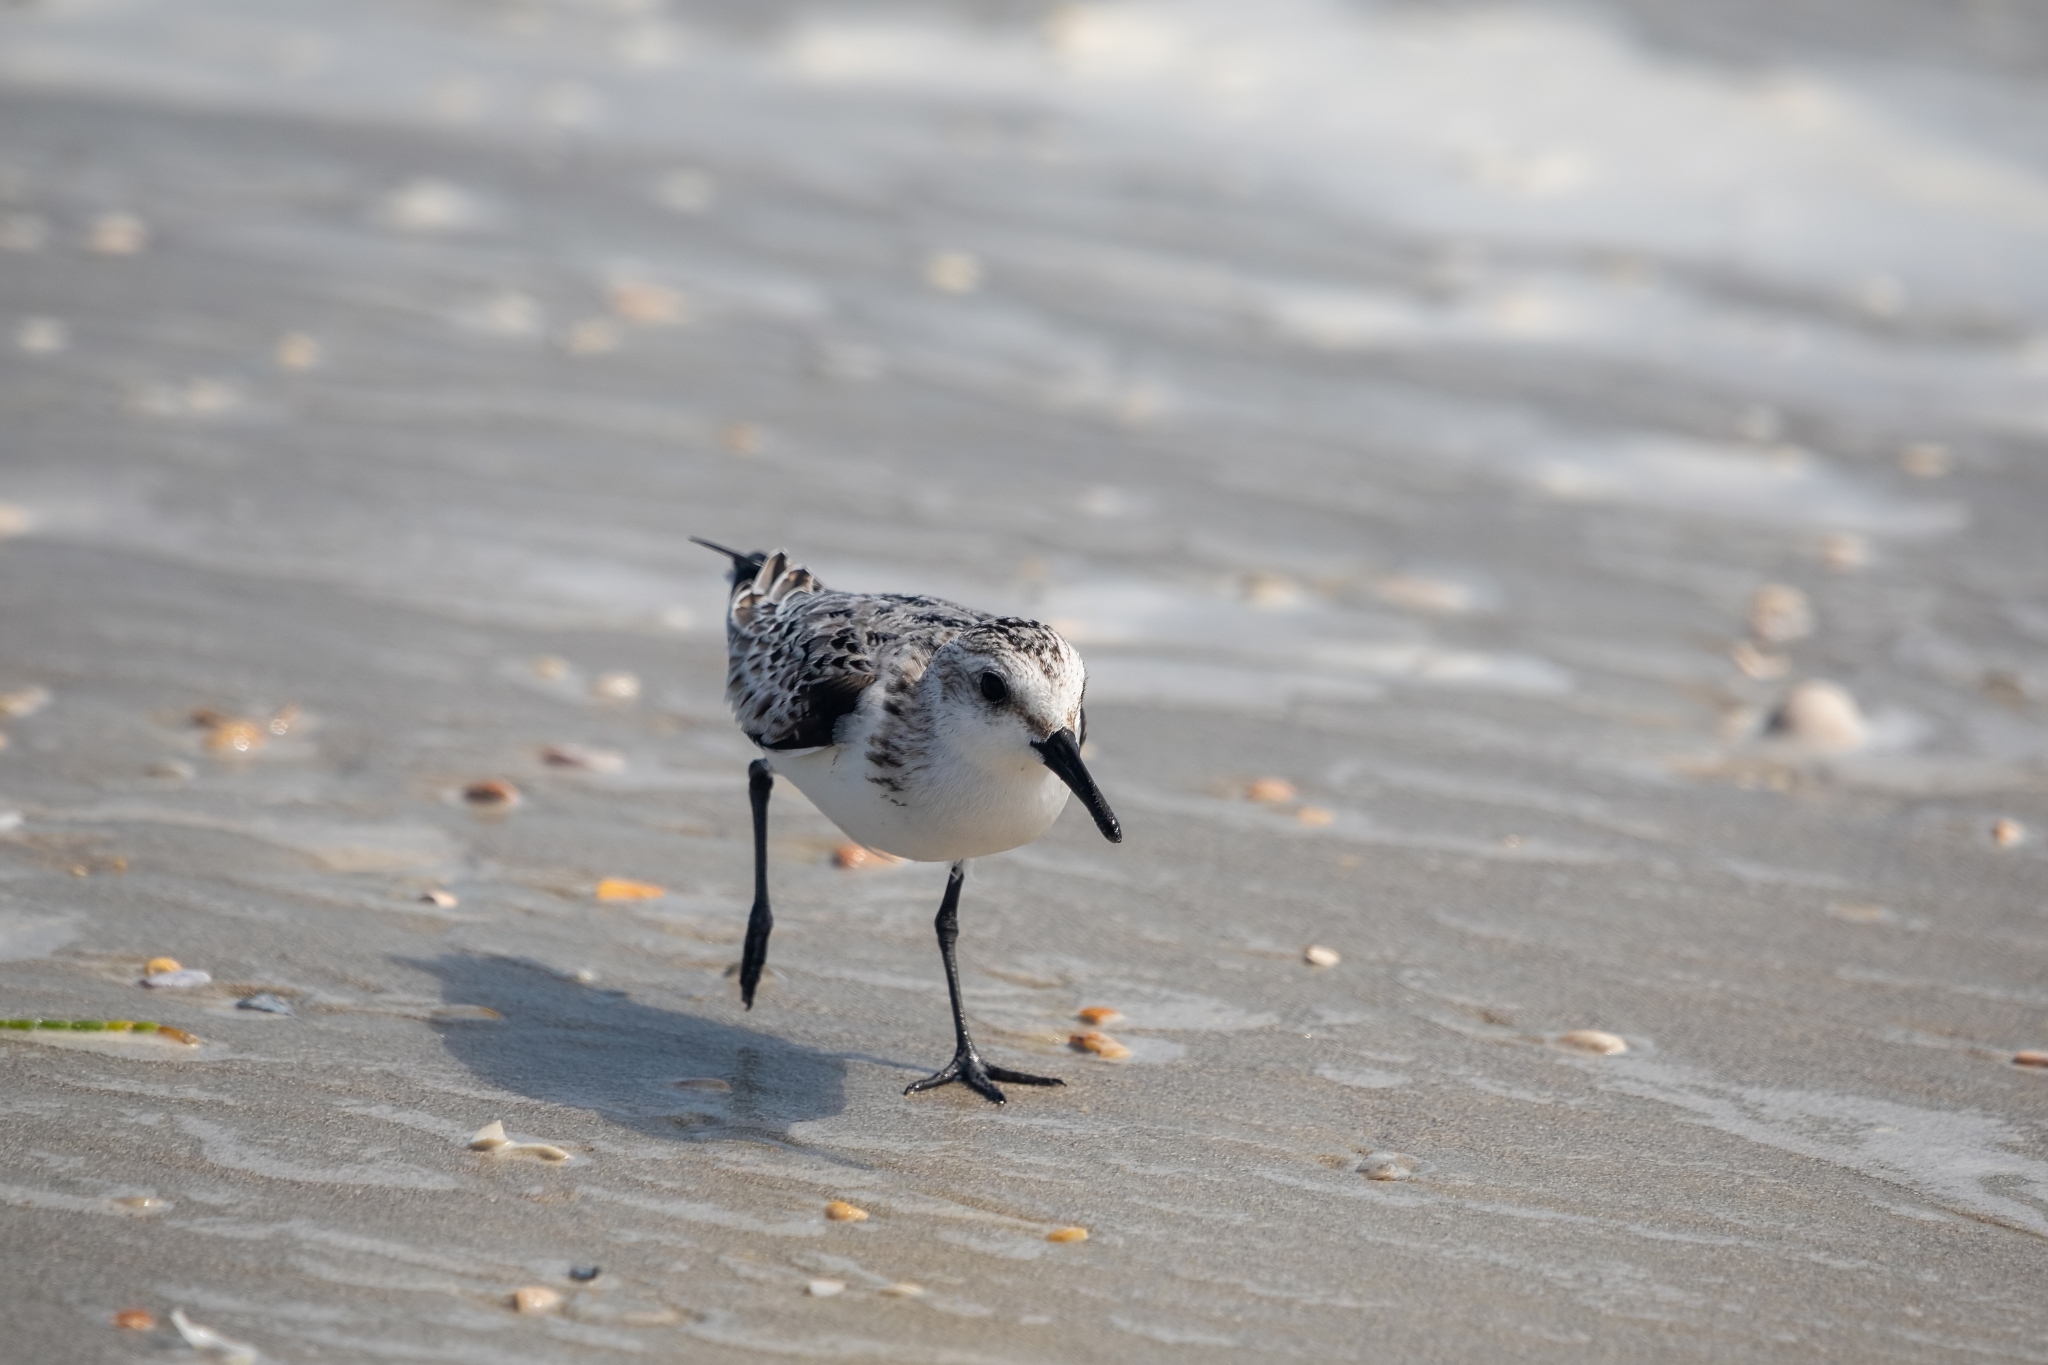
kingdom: Animalia
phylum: Chordata
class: Aves
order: Charadriiformes
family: Scolopacidae
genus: Calidris
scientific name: Calidris alba
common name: Sanderling
